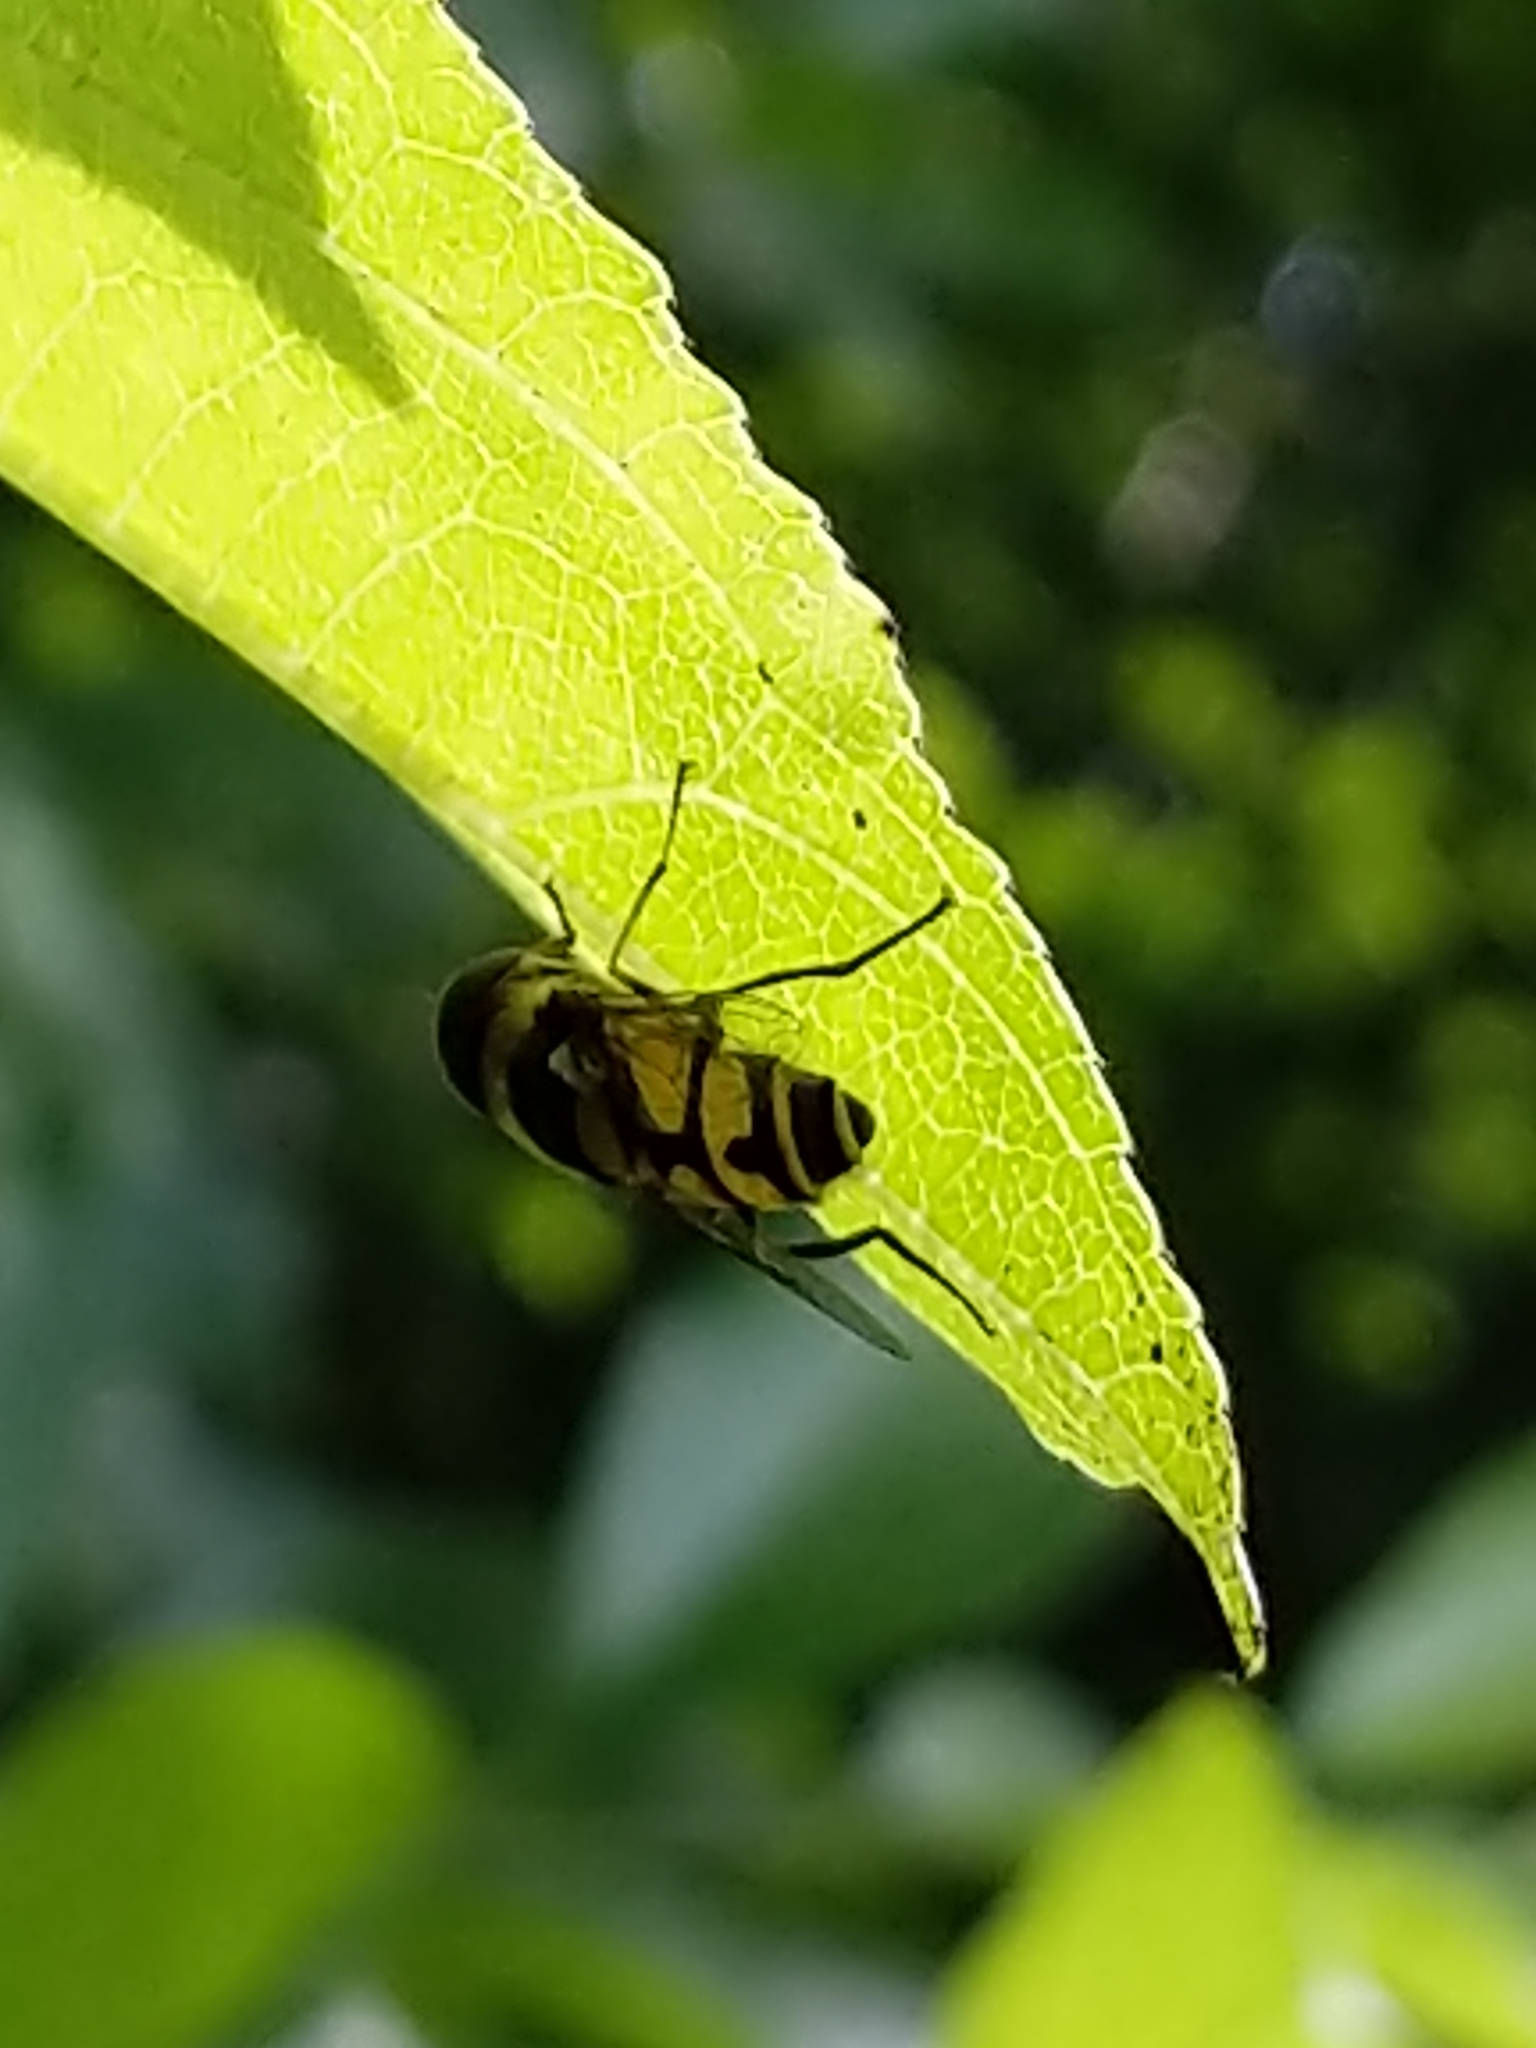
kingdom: Animalia
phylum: Arthropoda
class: Insecta
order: Diptera
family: Syrphidae
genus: Eristalis
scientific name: Eristalis transversa
